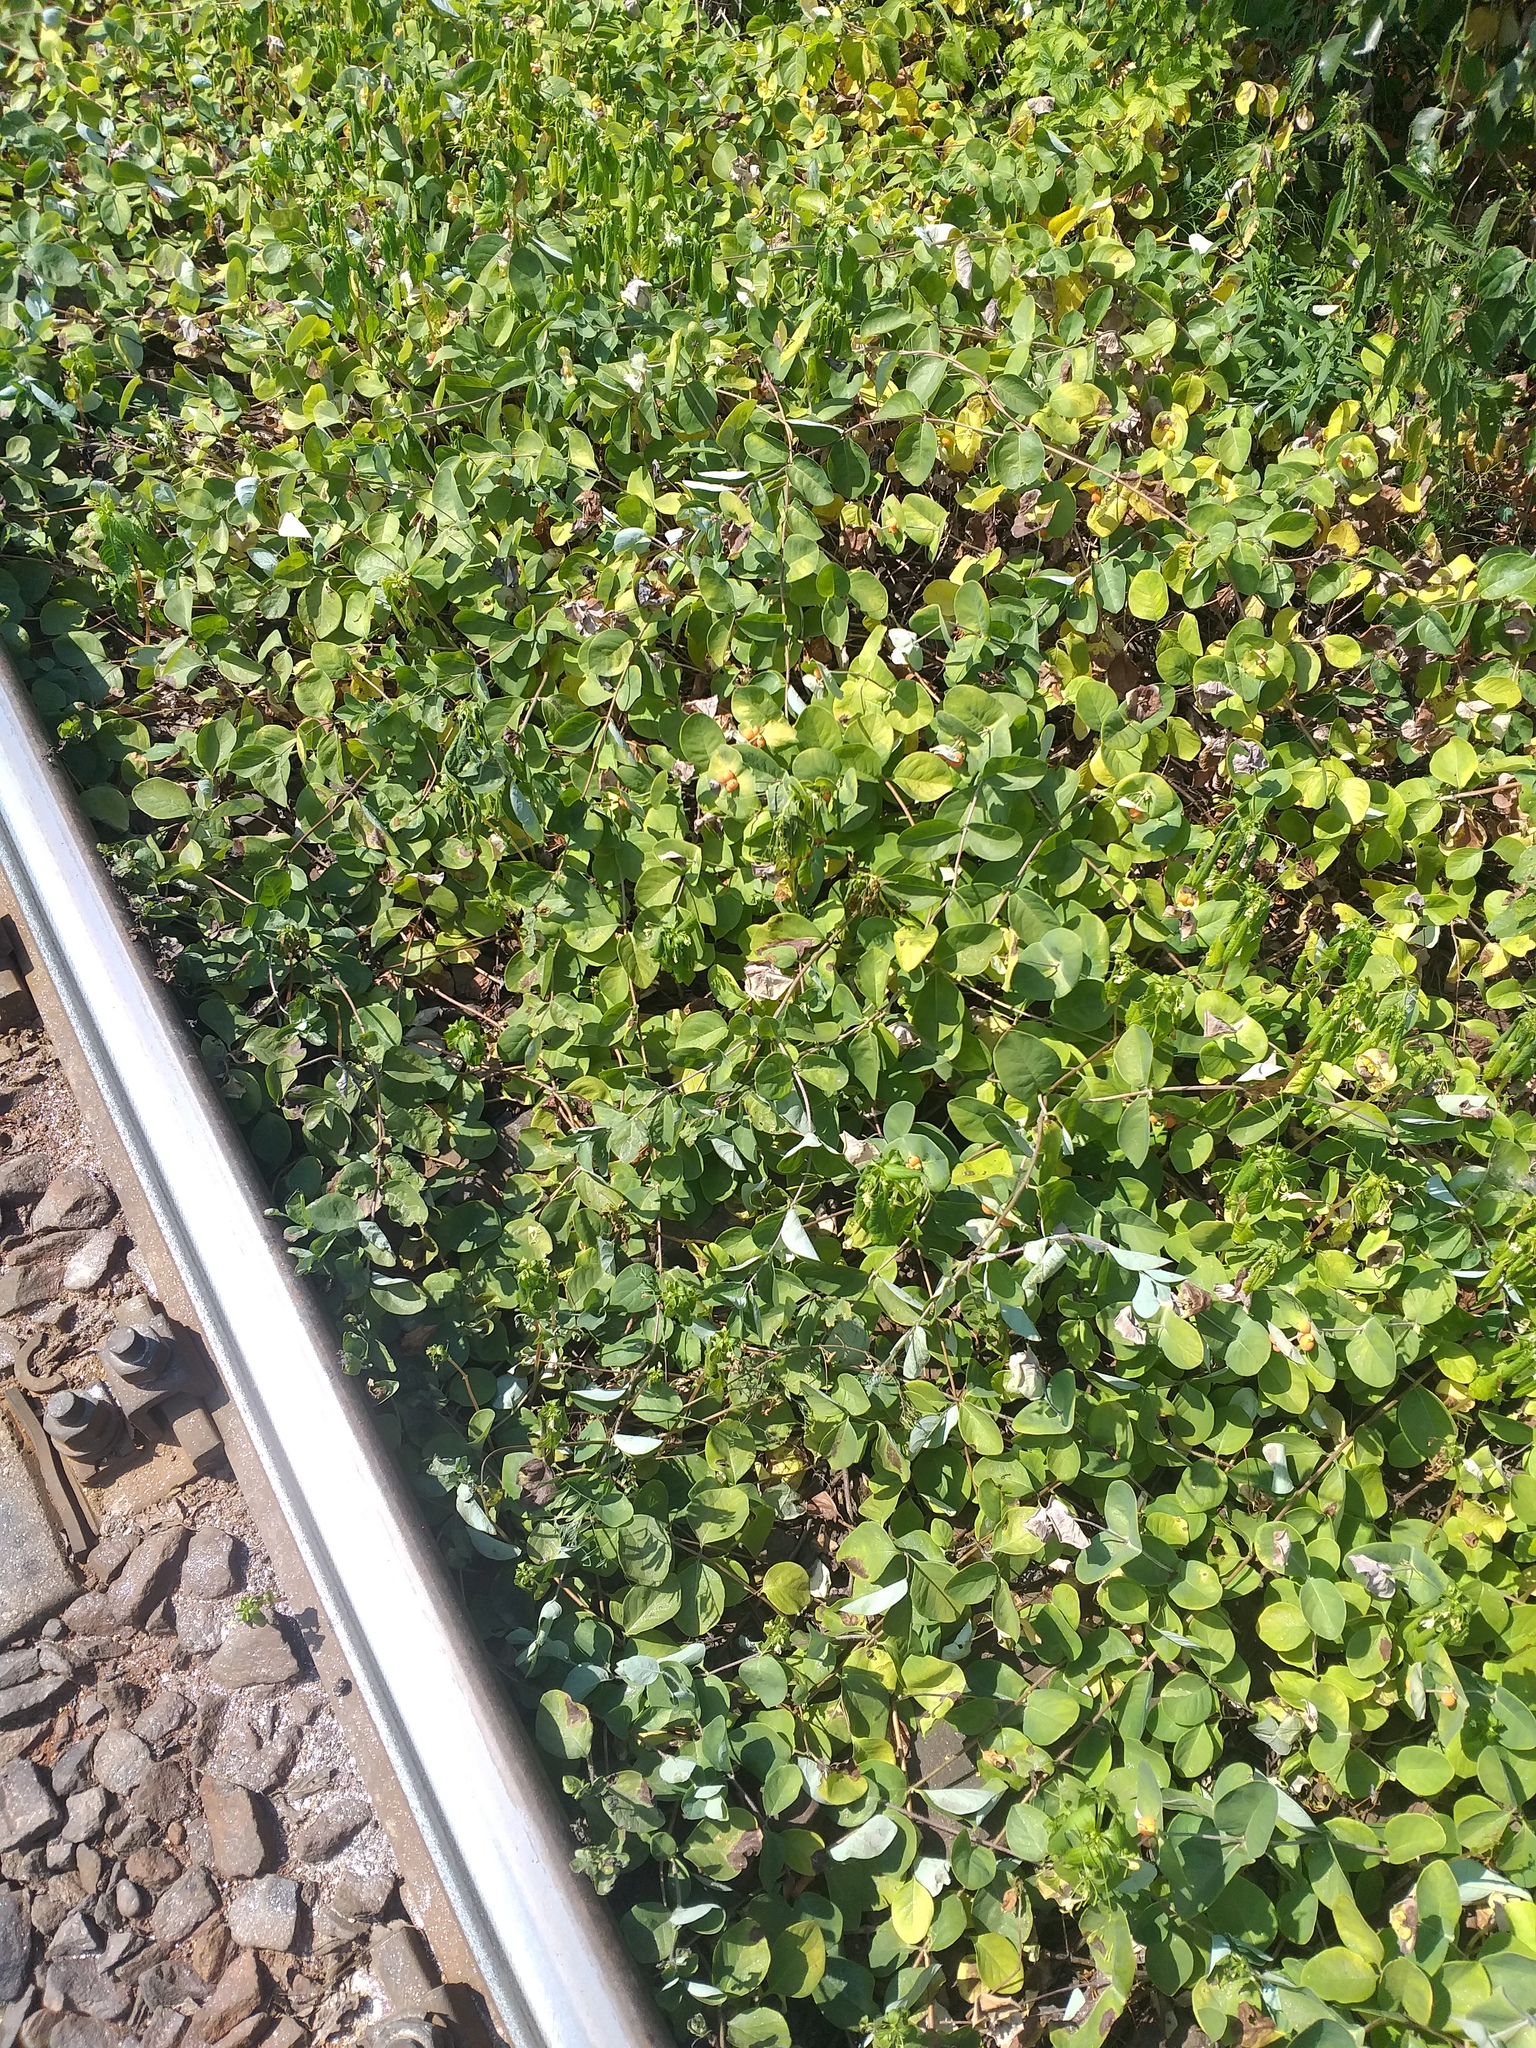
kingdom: Plantae
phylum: Tracheophyta
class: Magnoliopsida
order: Dipsacales
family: Caprifoliaceae
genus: Lonicera
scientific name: Lonicera caprifolium
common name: Perfoliate honeysuckle
